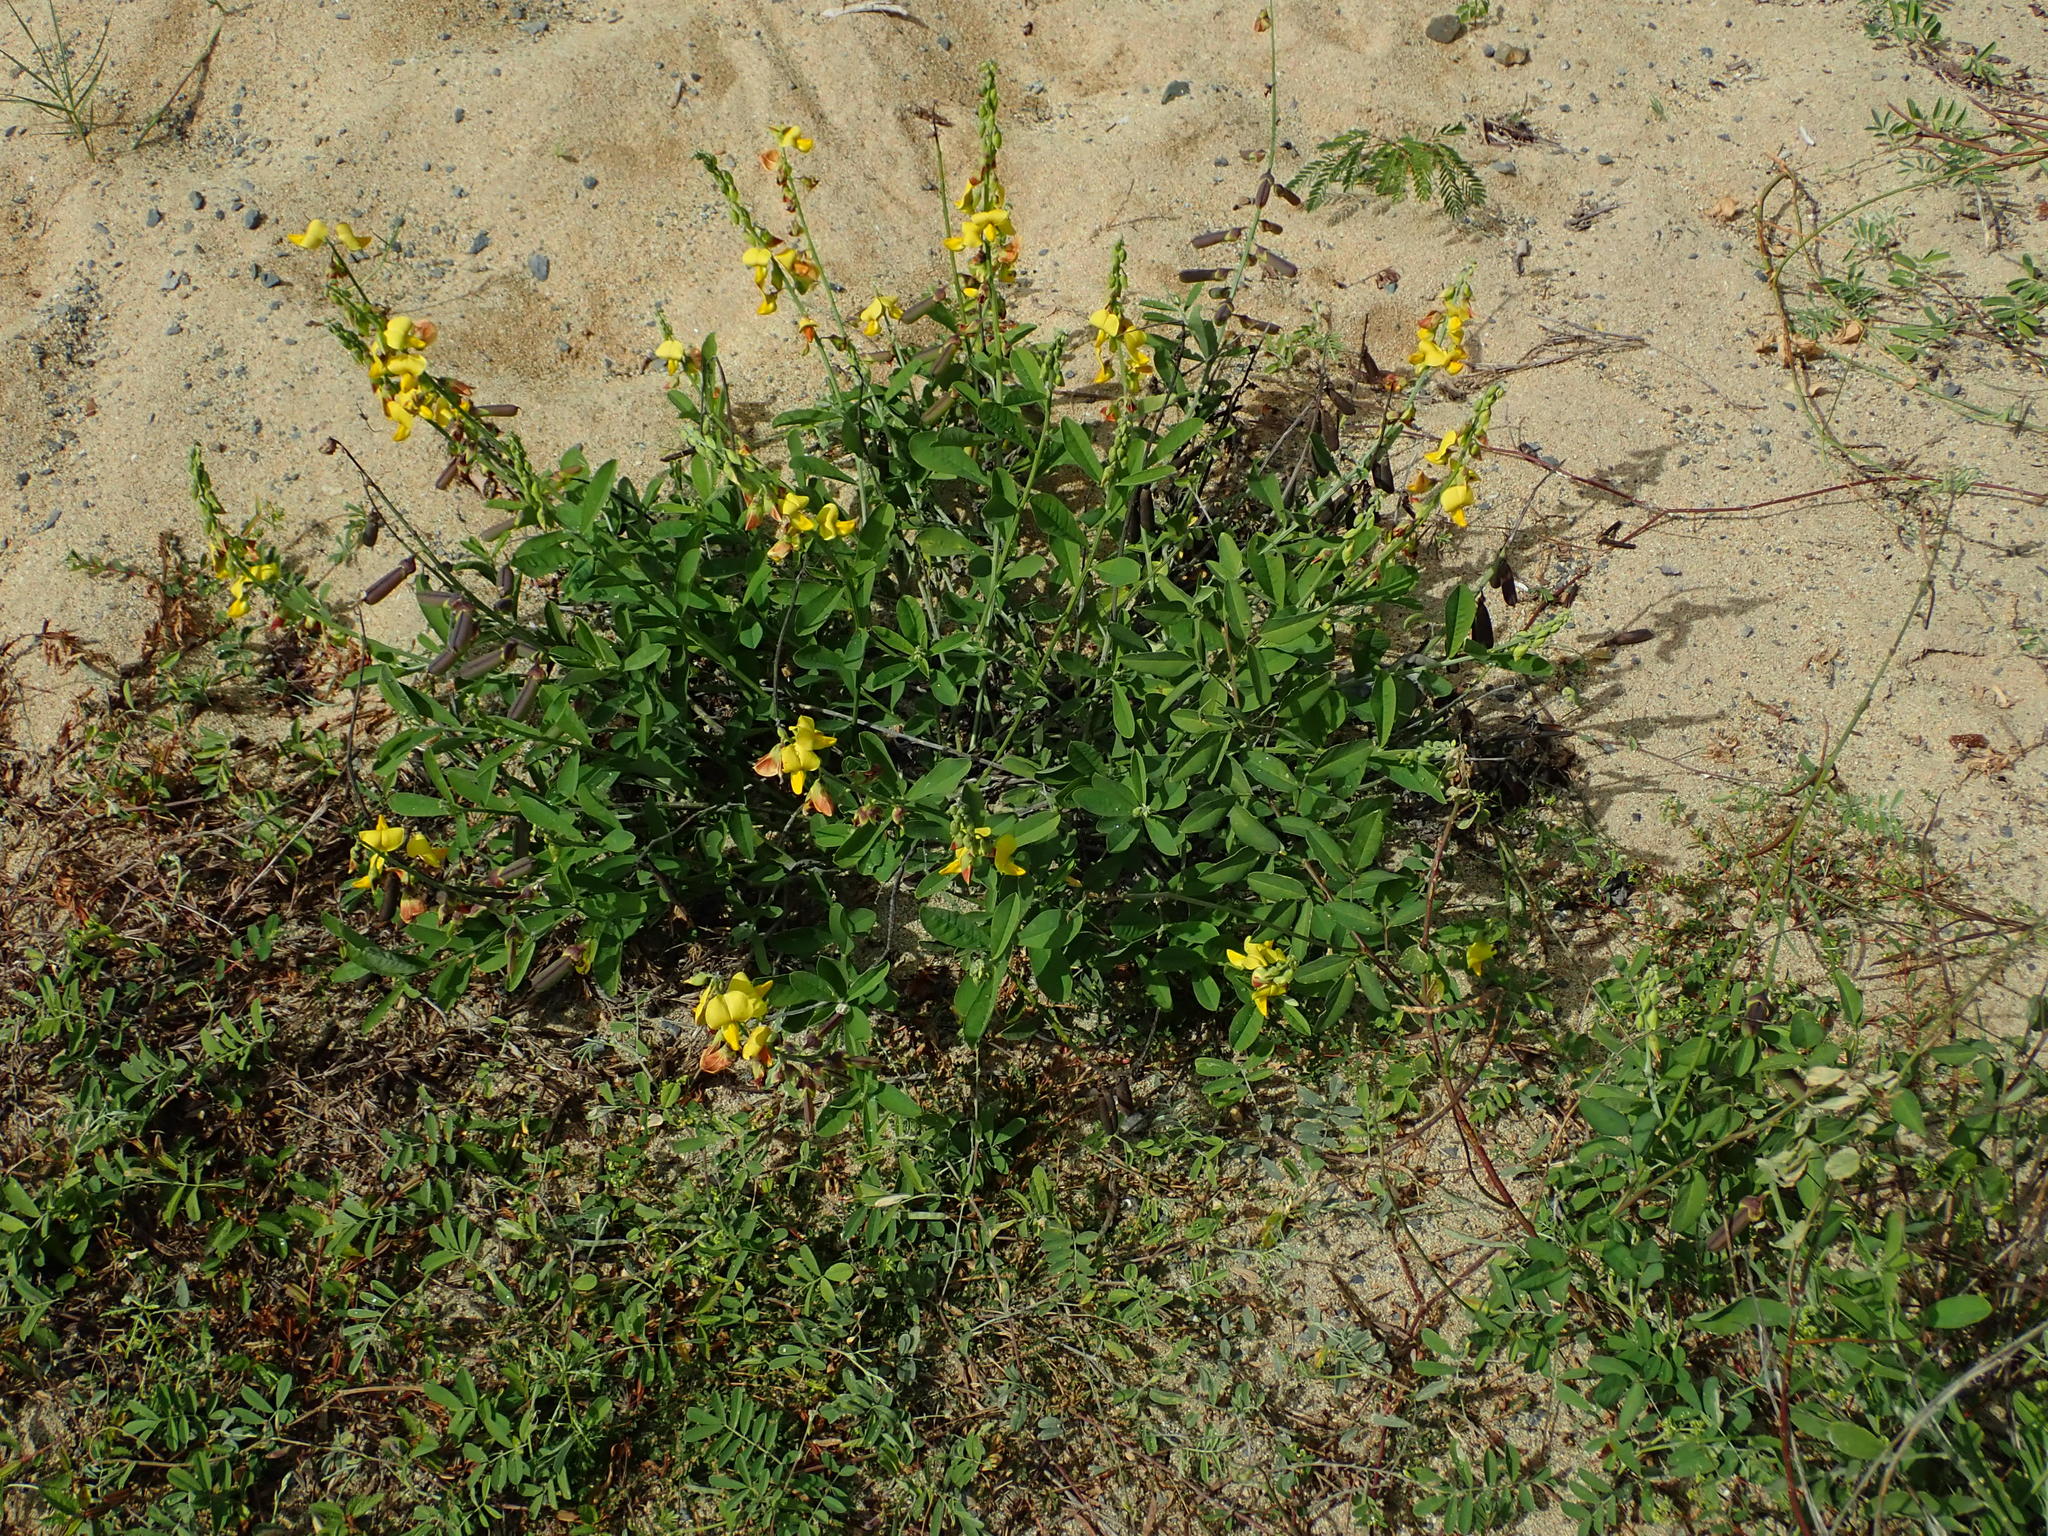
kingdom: Plantae
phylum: Tracheophyta
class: Magnoliopsida
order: Fabales
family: Fabaceae
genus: Crotalaria
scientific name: Crotalaria retusa
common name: Rattleweed
